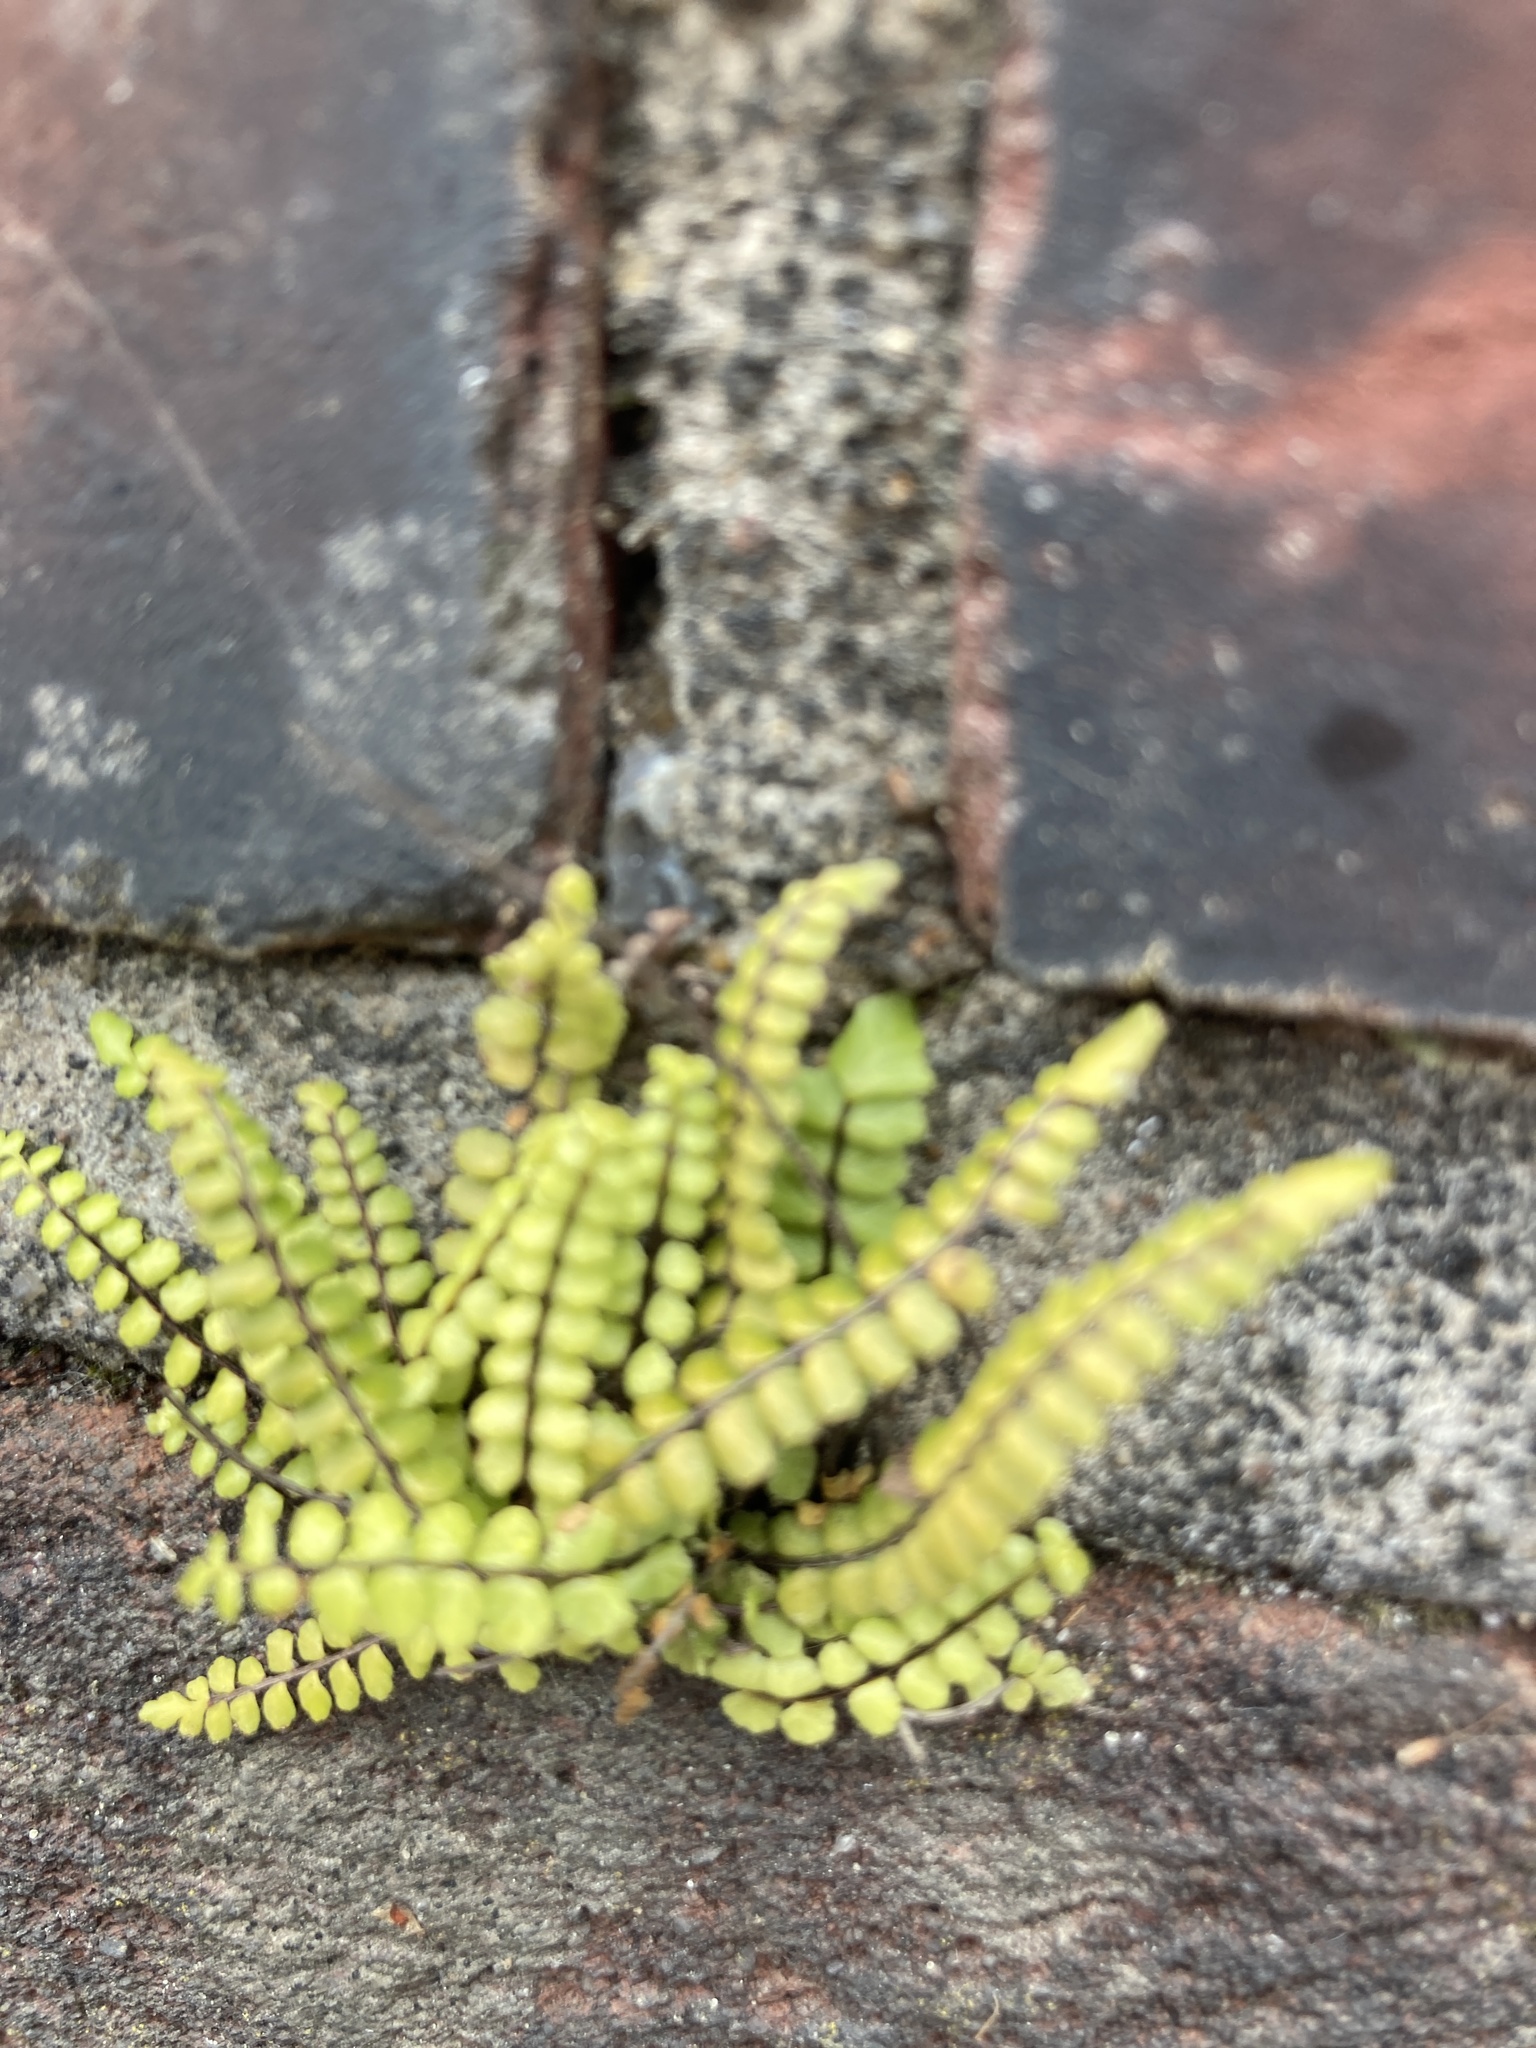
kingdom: Plantae
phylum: Tracheophyta
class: Polypodiopsida
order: Polypodiales
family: Aspleniaceae
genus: Asplenium
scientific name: Asplenium trichomanes
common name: Maidenhair spleenwort
